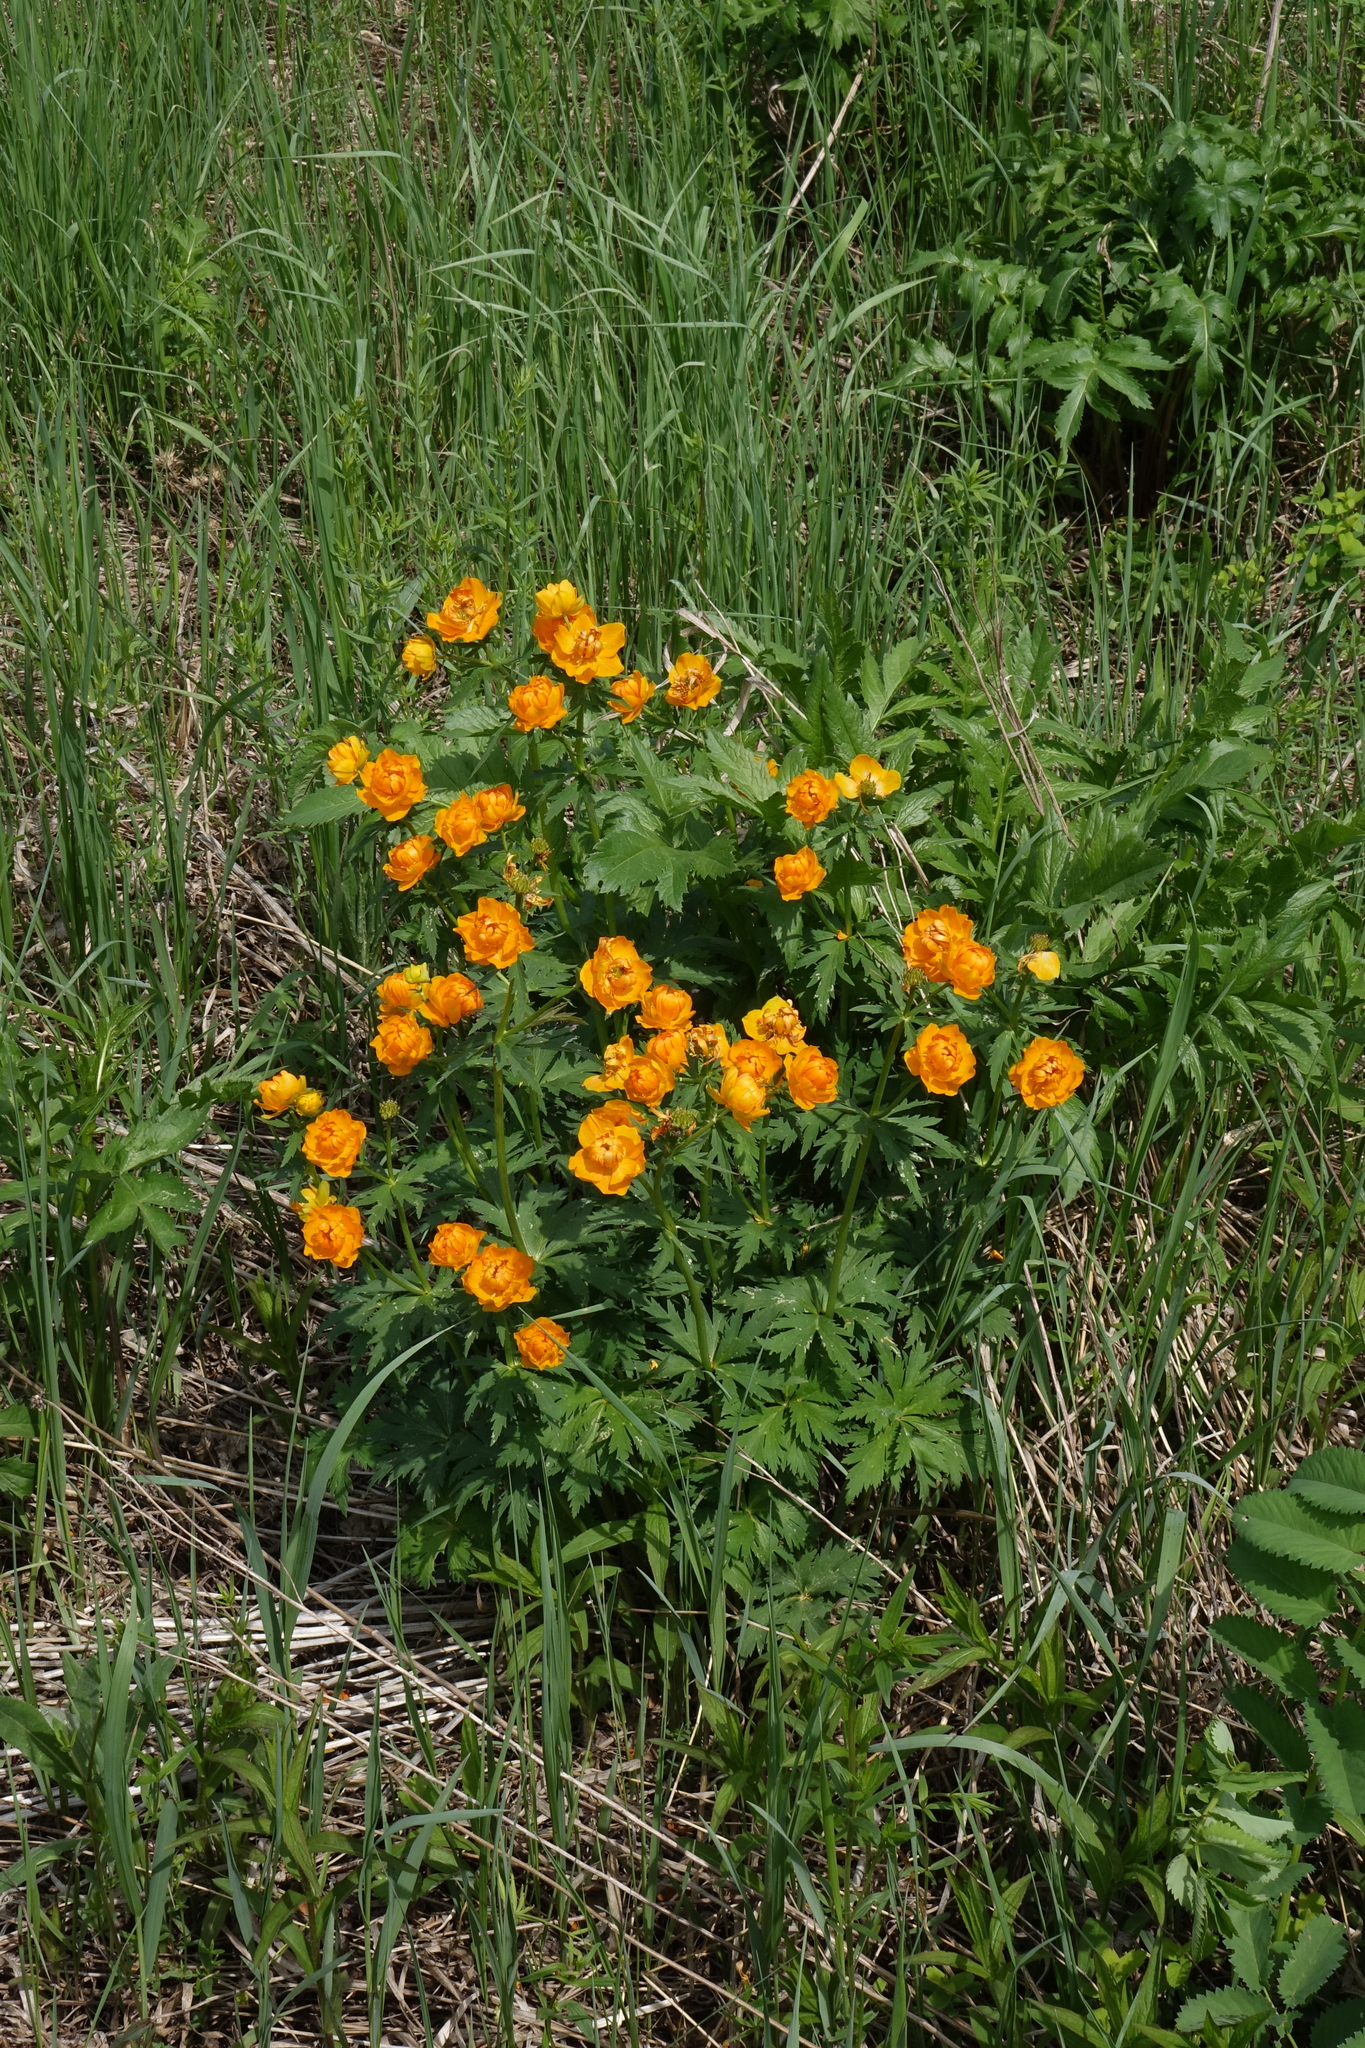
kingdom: Plantae
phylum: Tracheophyta
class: Magnoliopsida
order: Ranunculales
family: Ranunculaceae
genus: Trollius
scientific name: Trollius asiaticus
